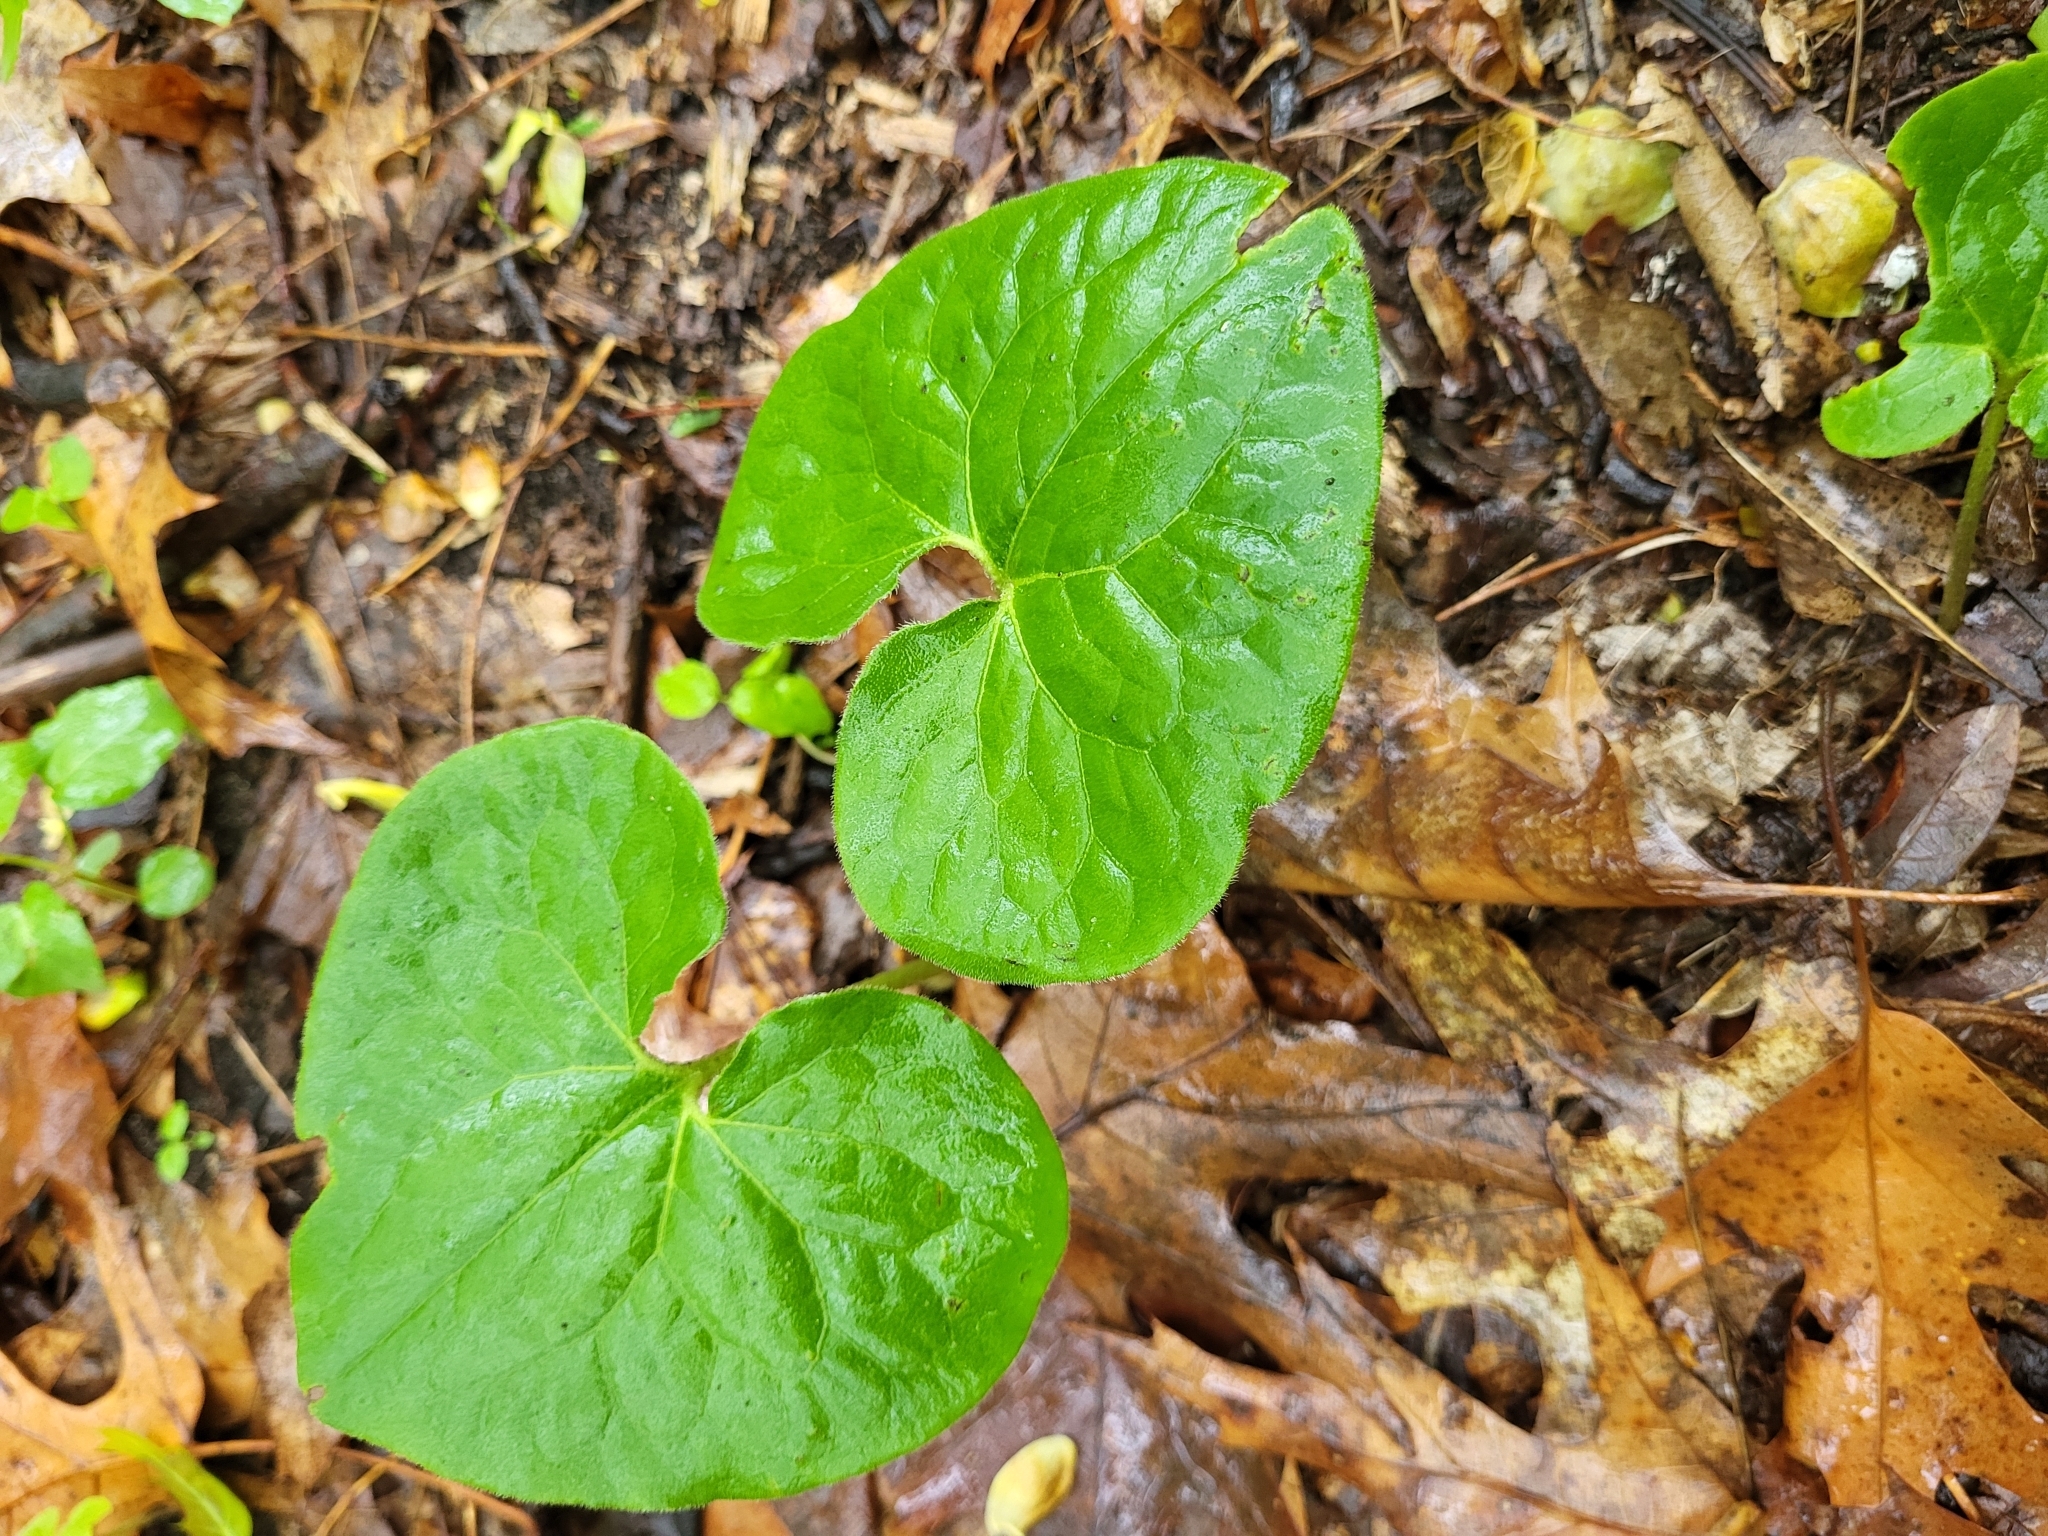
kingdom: Plantae
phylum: Tracheophyta
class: Magnoliopsida
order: Piperales
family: Aristolochiaceae
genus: Asarum
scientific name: Asarum canadense
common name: Wild ginger
